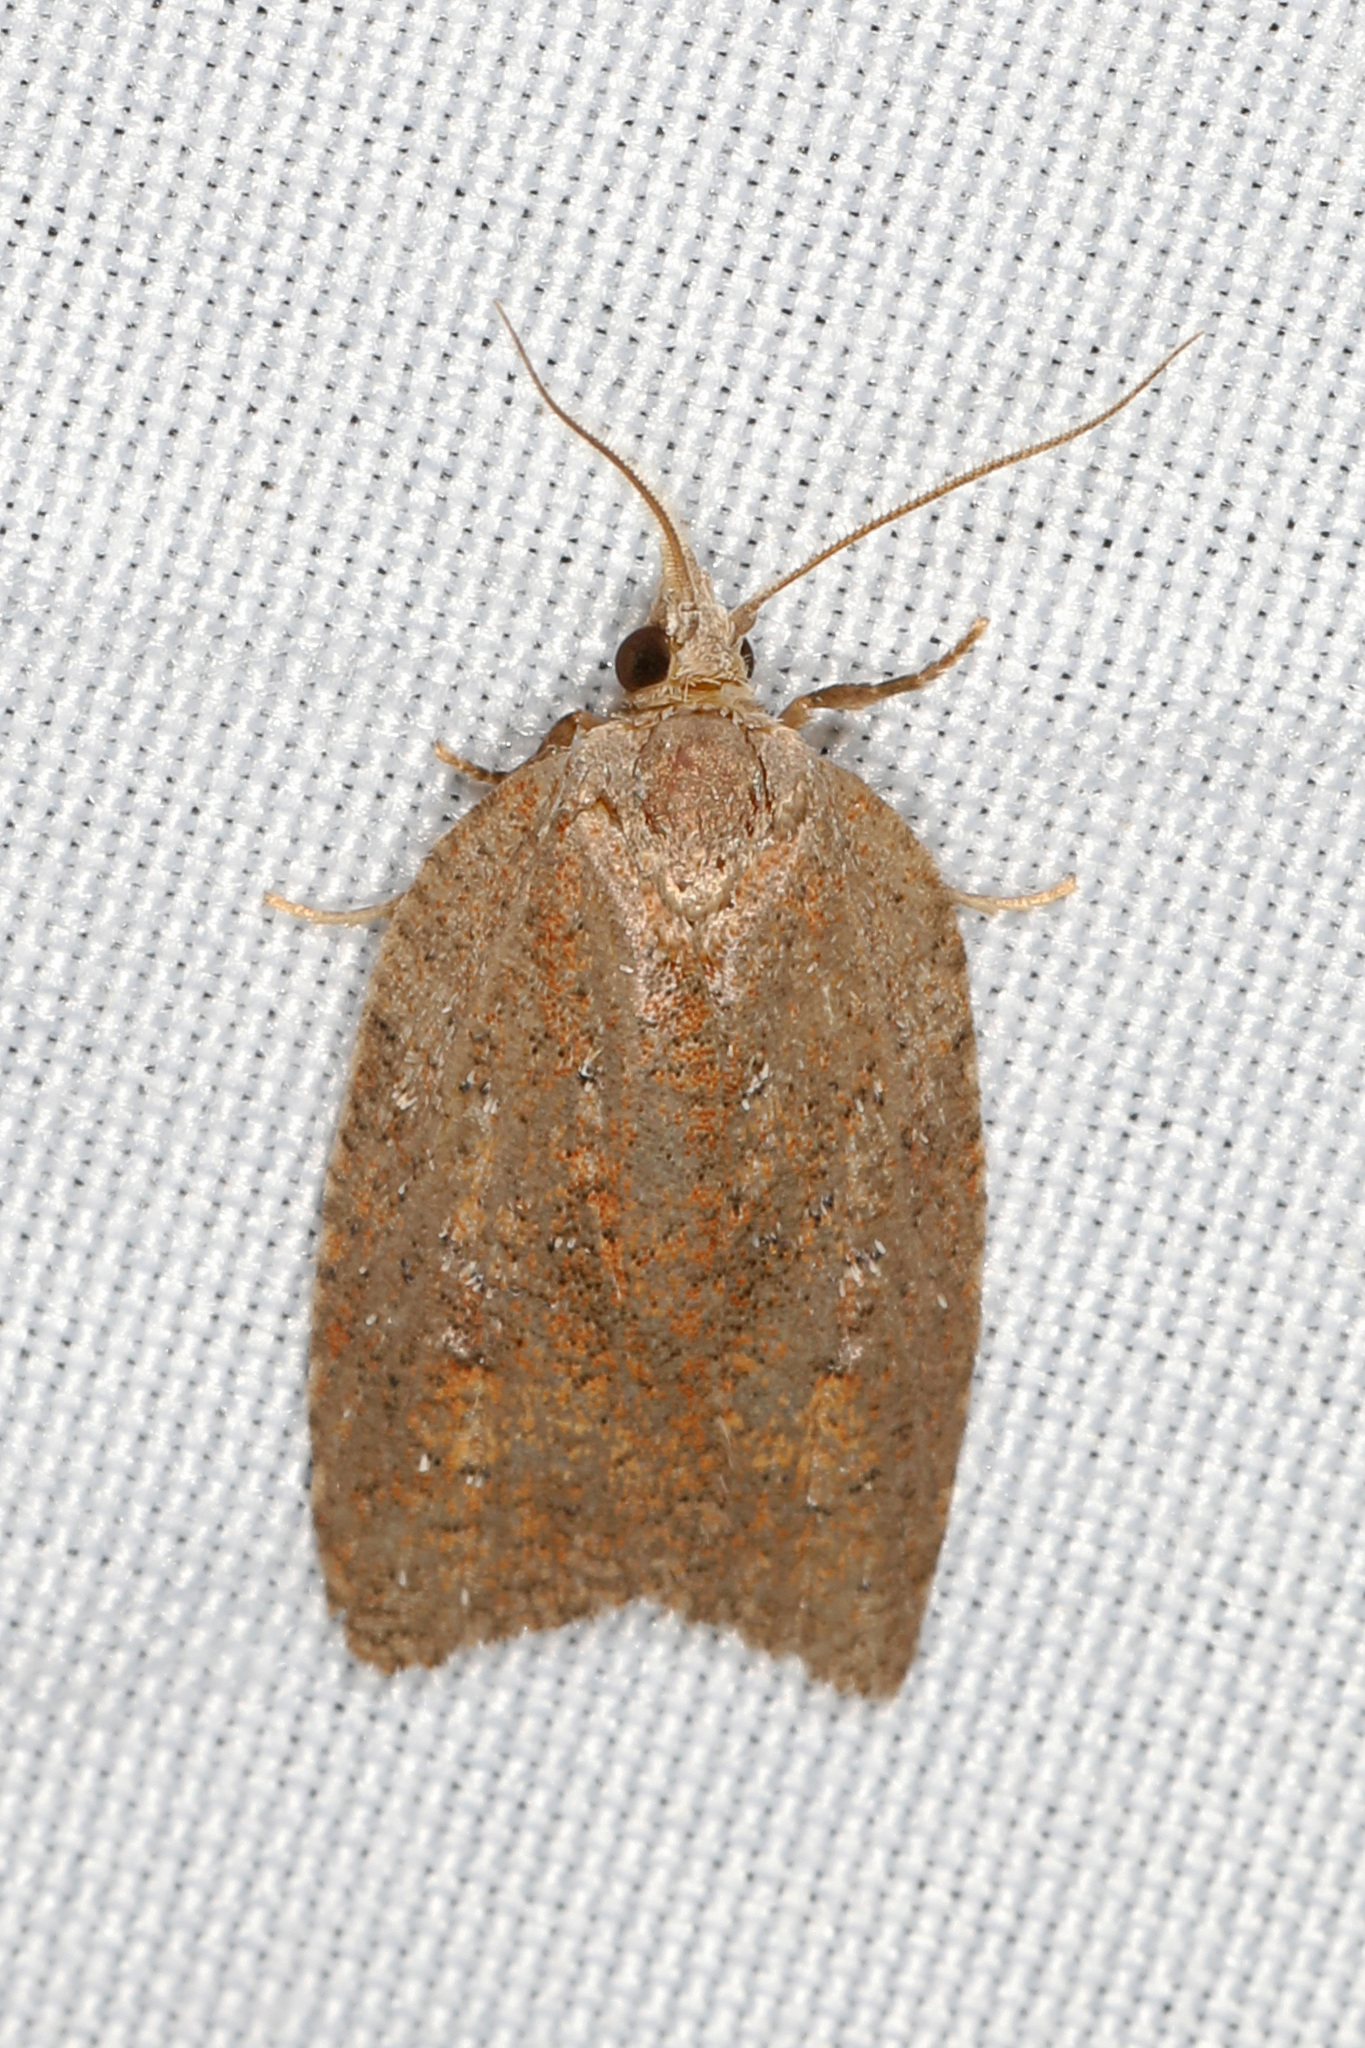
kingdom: Animalia
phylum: Arthropoda
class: Insecta
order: Lepidoptera
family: Tortricidae
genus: Amorbia
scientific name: Amorbia humerosana
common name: White-lined leafroller moth
